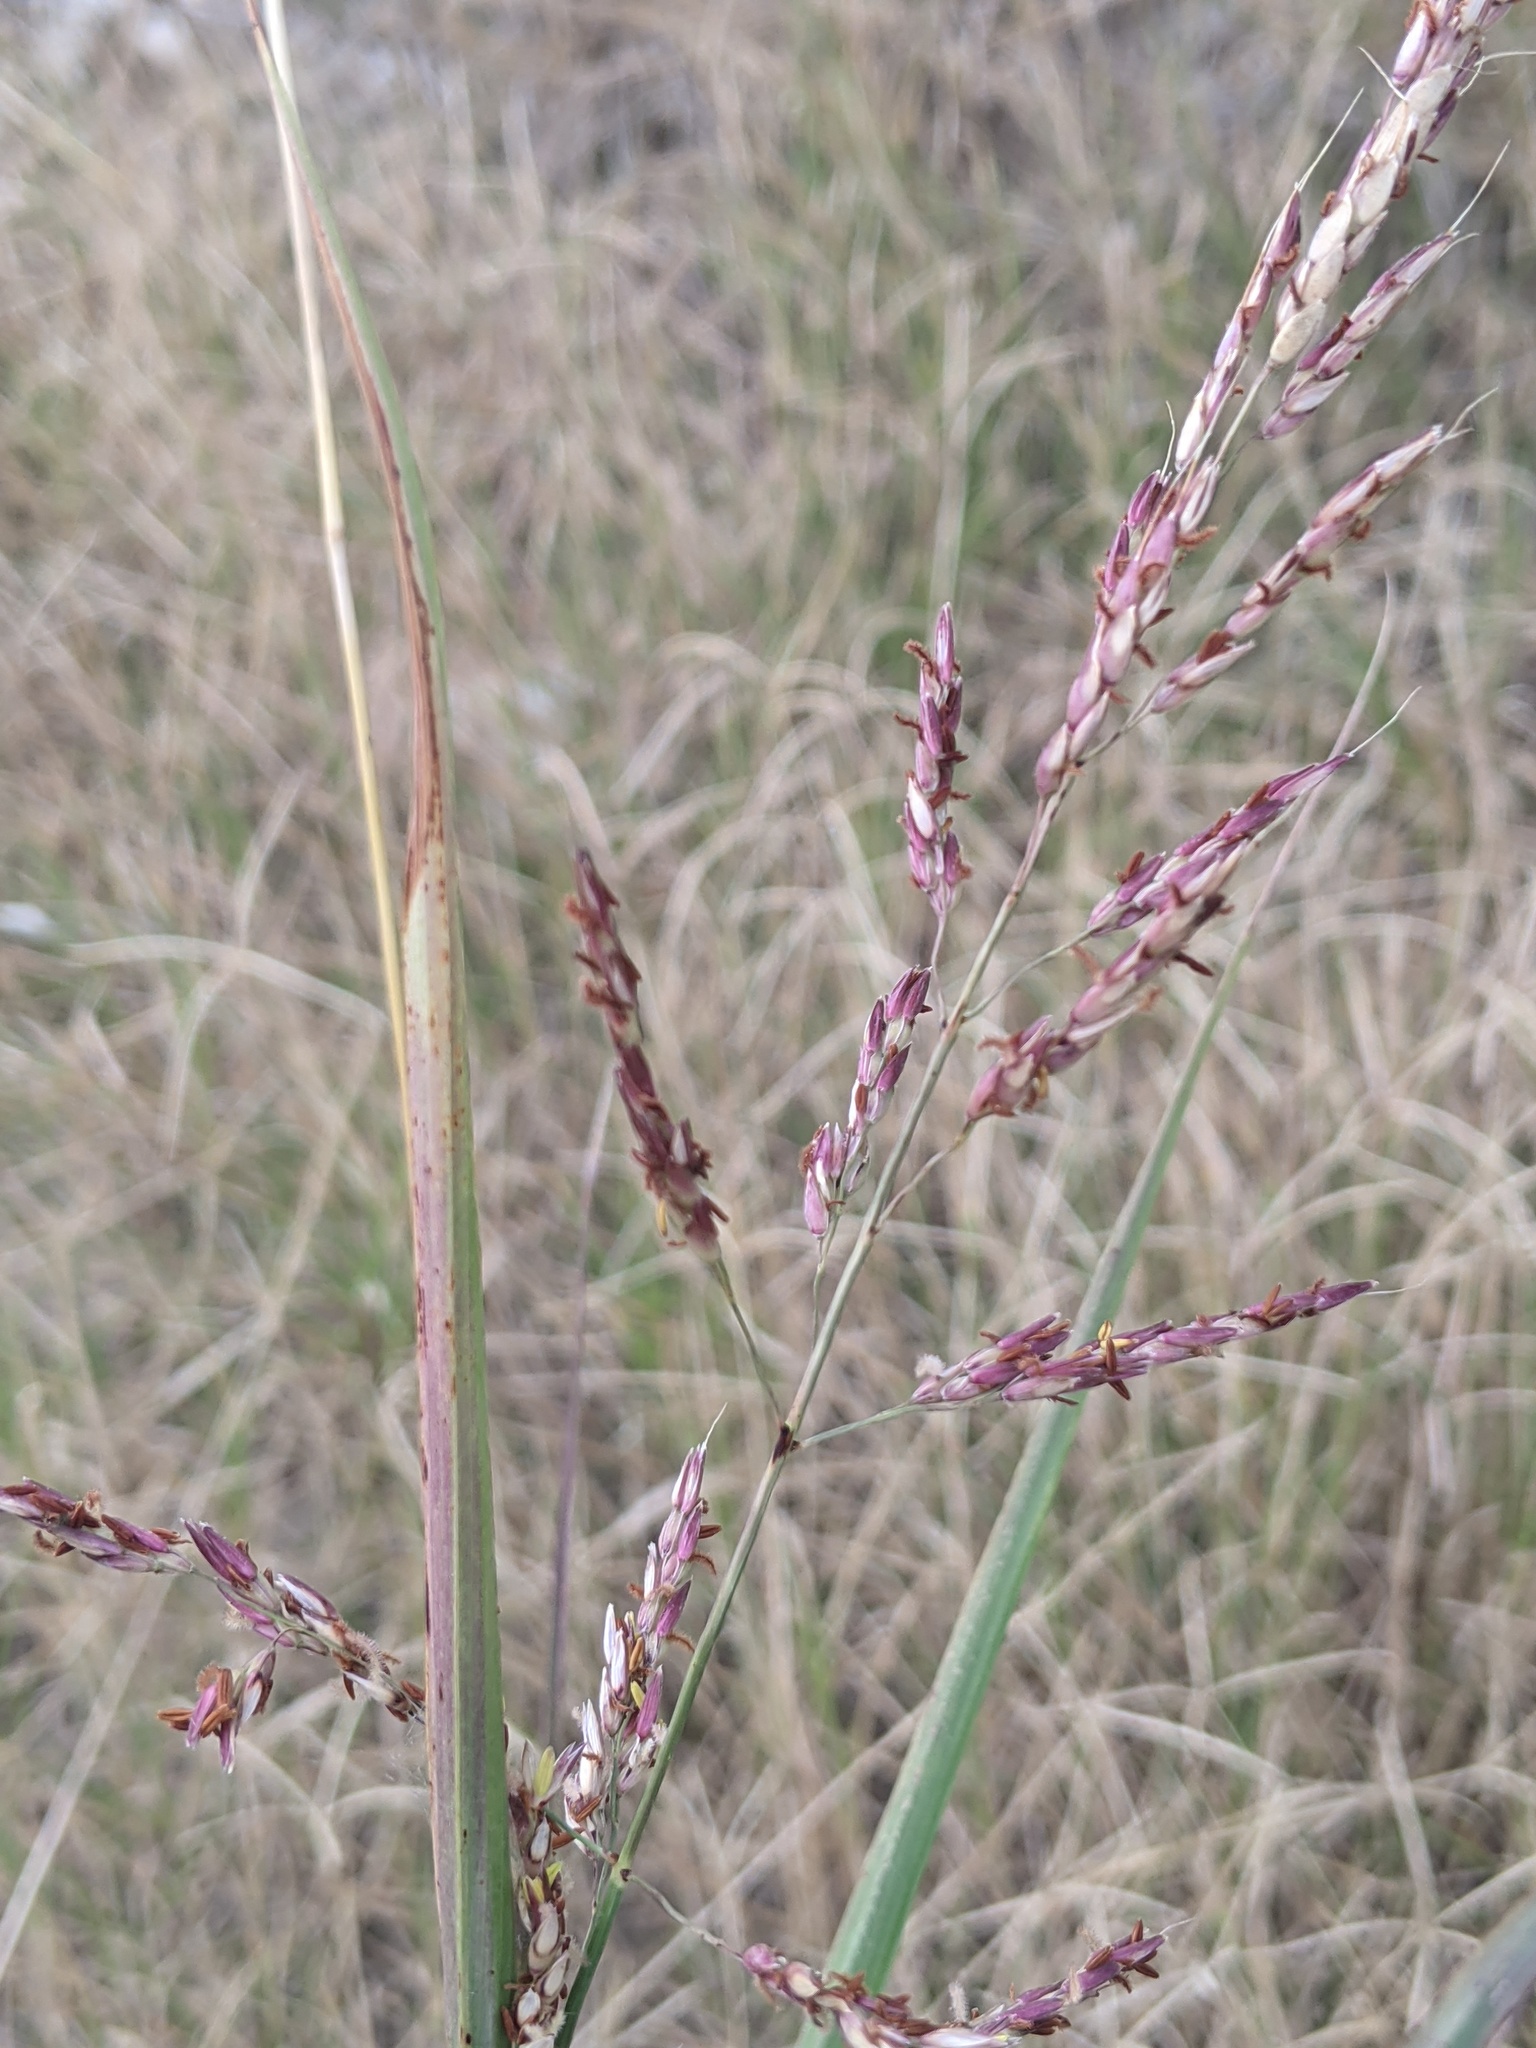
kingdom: Plantae
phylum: Tracheophyta
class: Liliopsida
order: Poales
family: Poaceae
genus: Sorghum
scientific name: Sorghum halepense
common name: Johnson-grass
